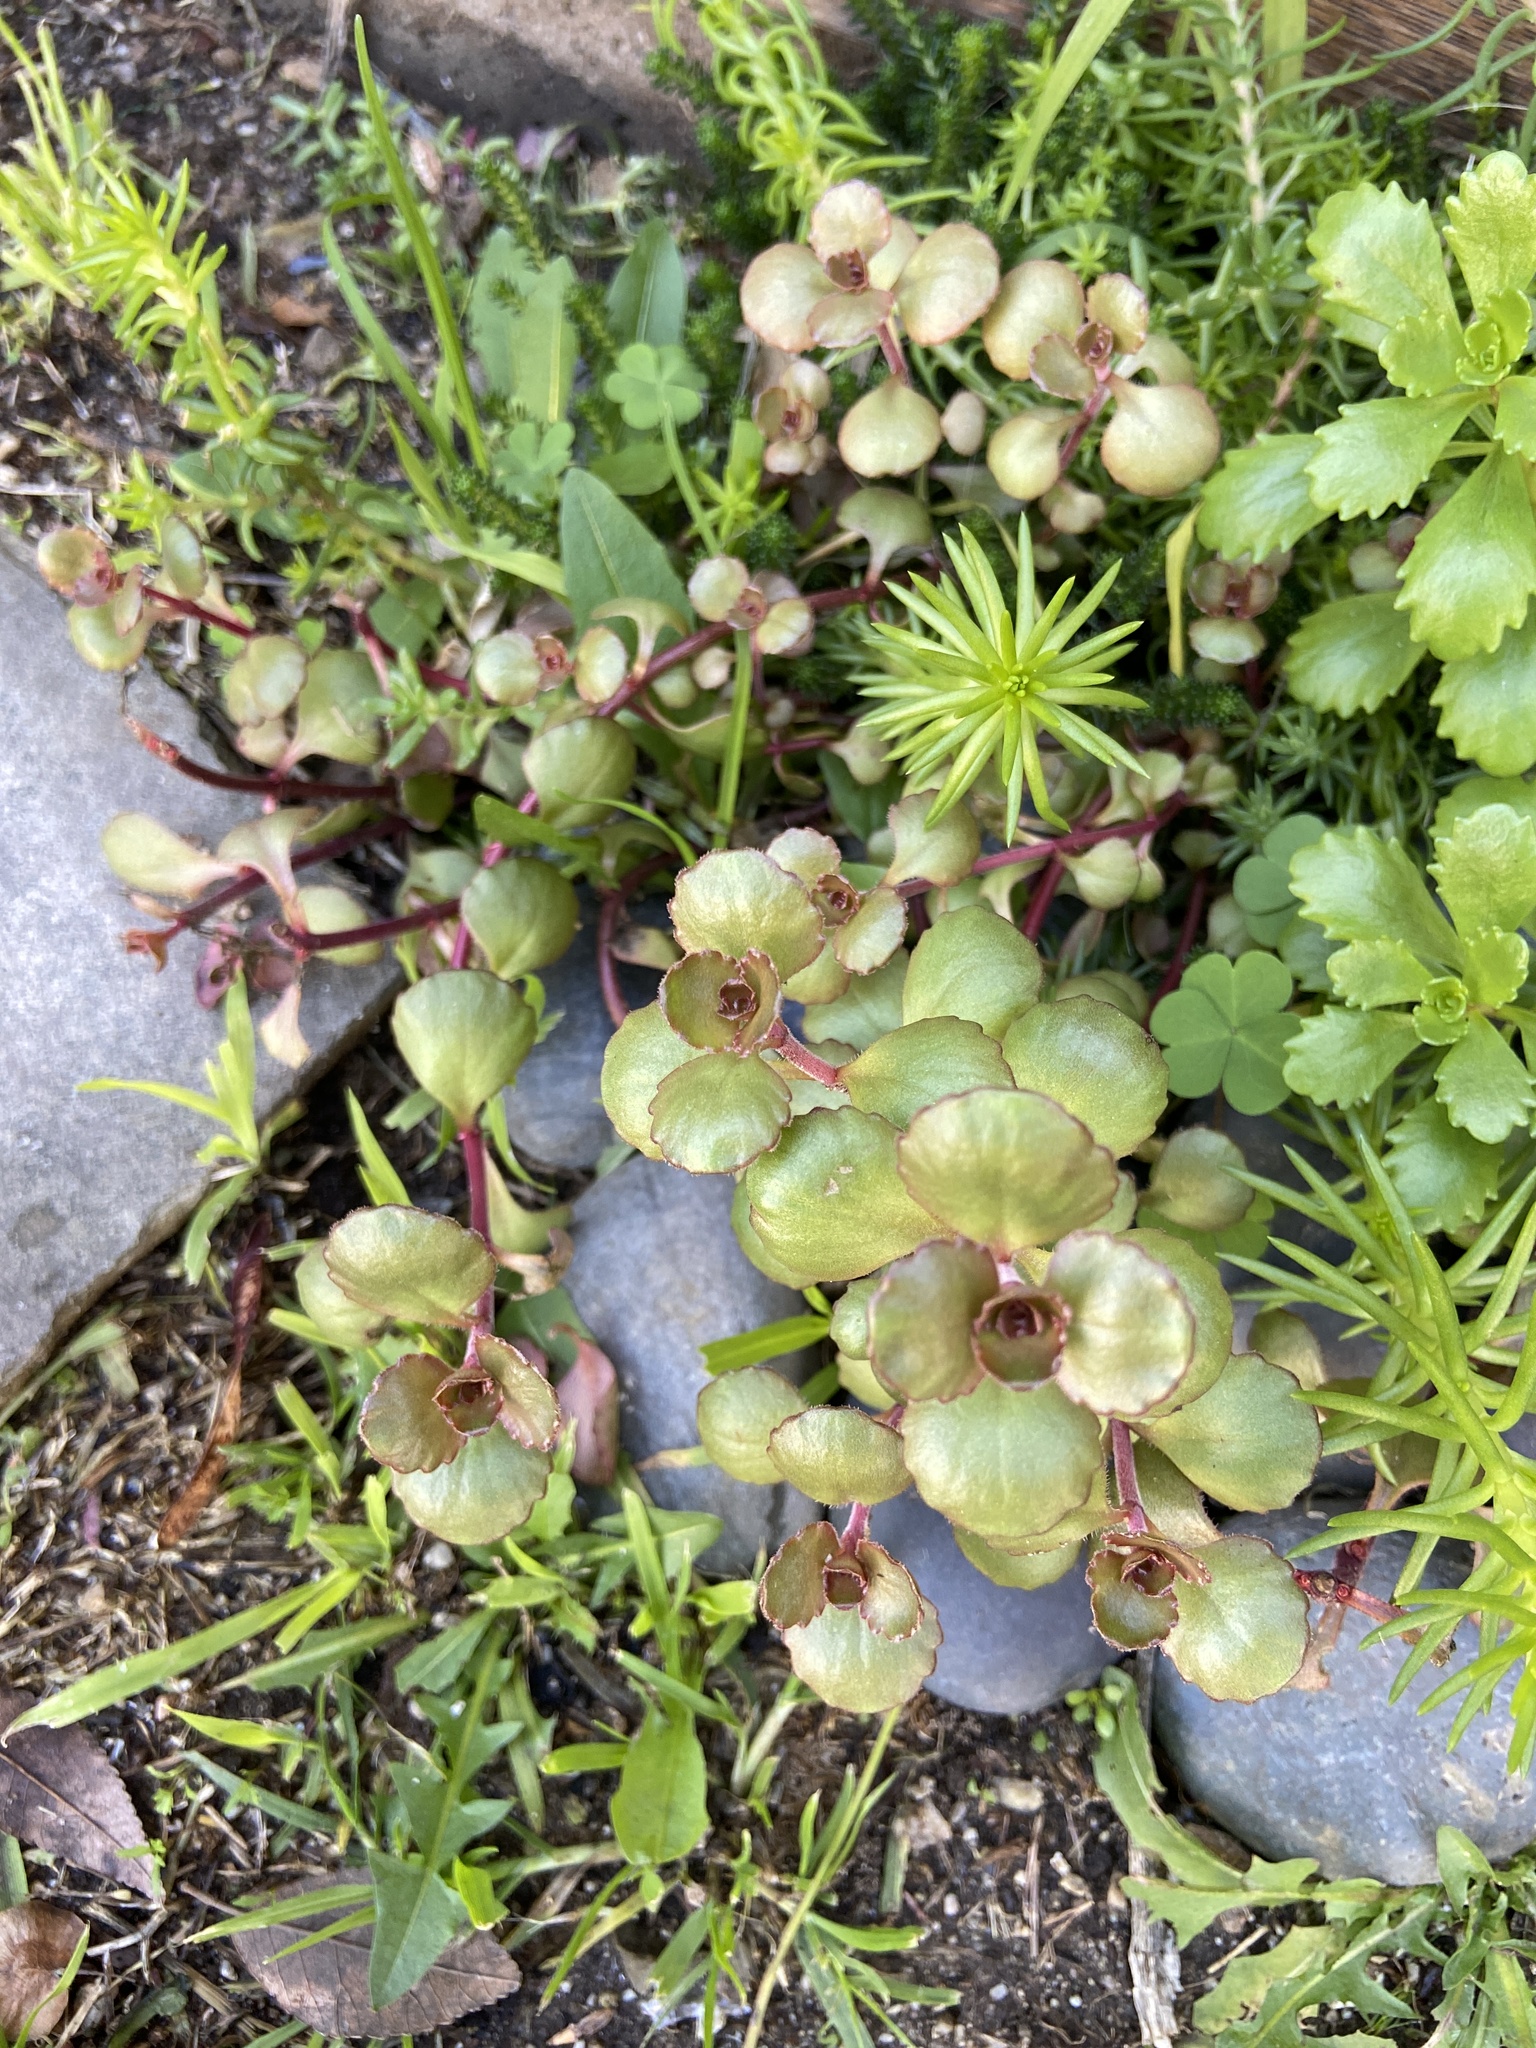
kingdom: Plantae
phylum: Tracheophyta
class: Magnoliopsida
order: Saxifragales
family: Crassulaceae
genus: Phedimus
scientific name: Phedimus spurius
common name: Caucasian stonecrop
